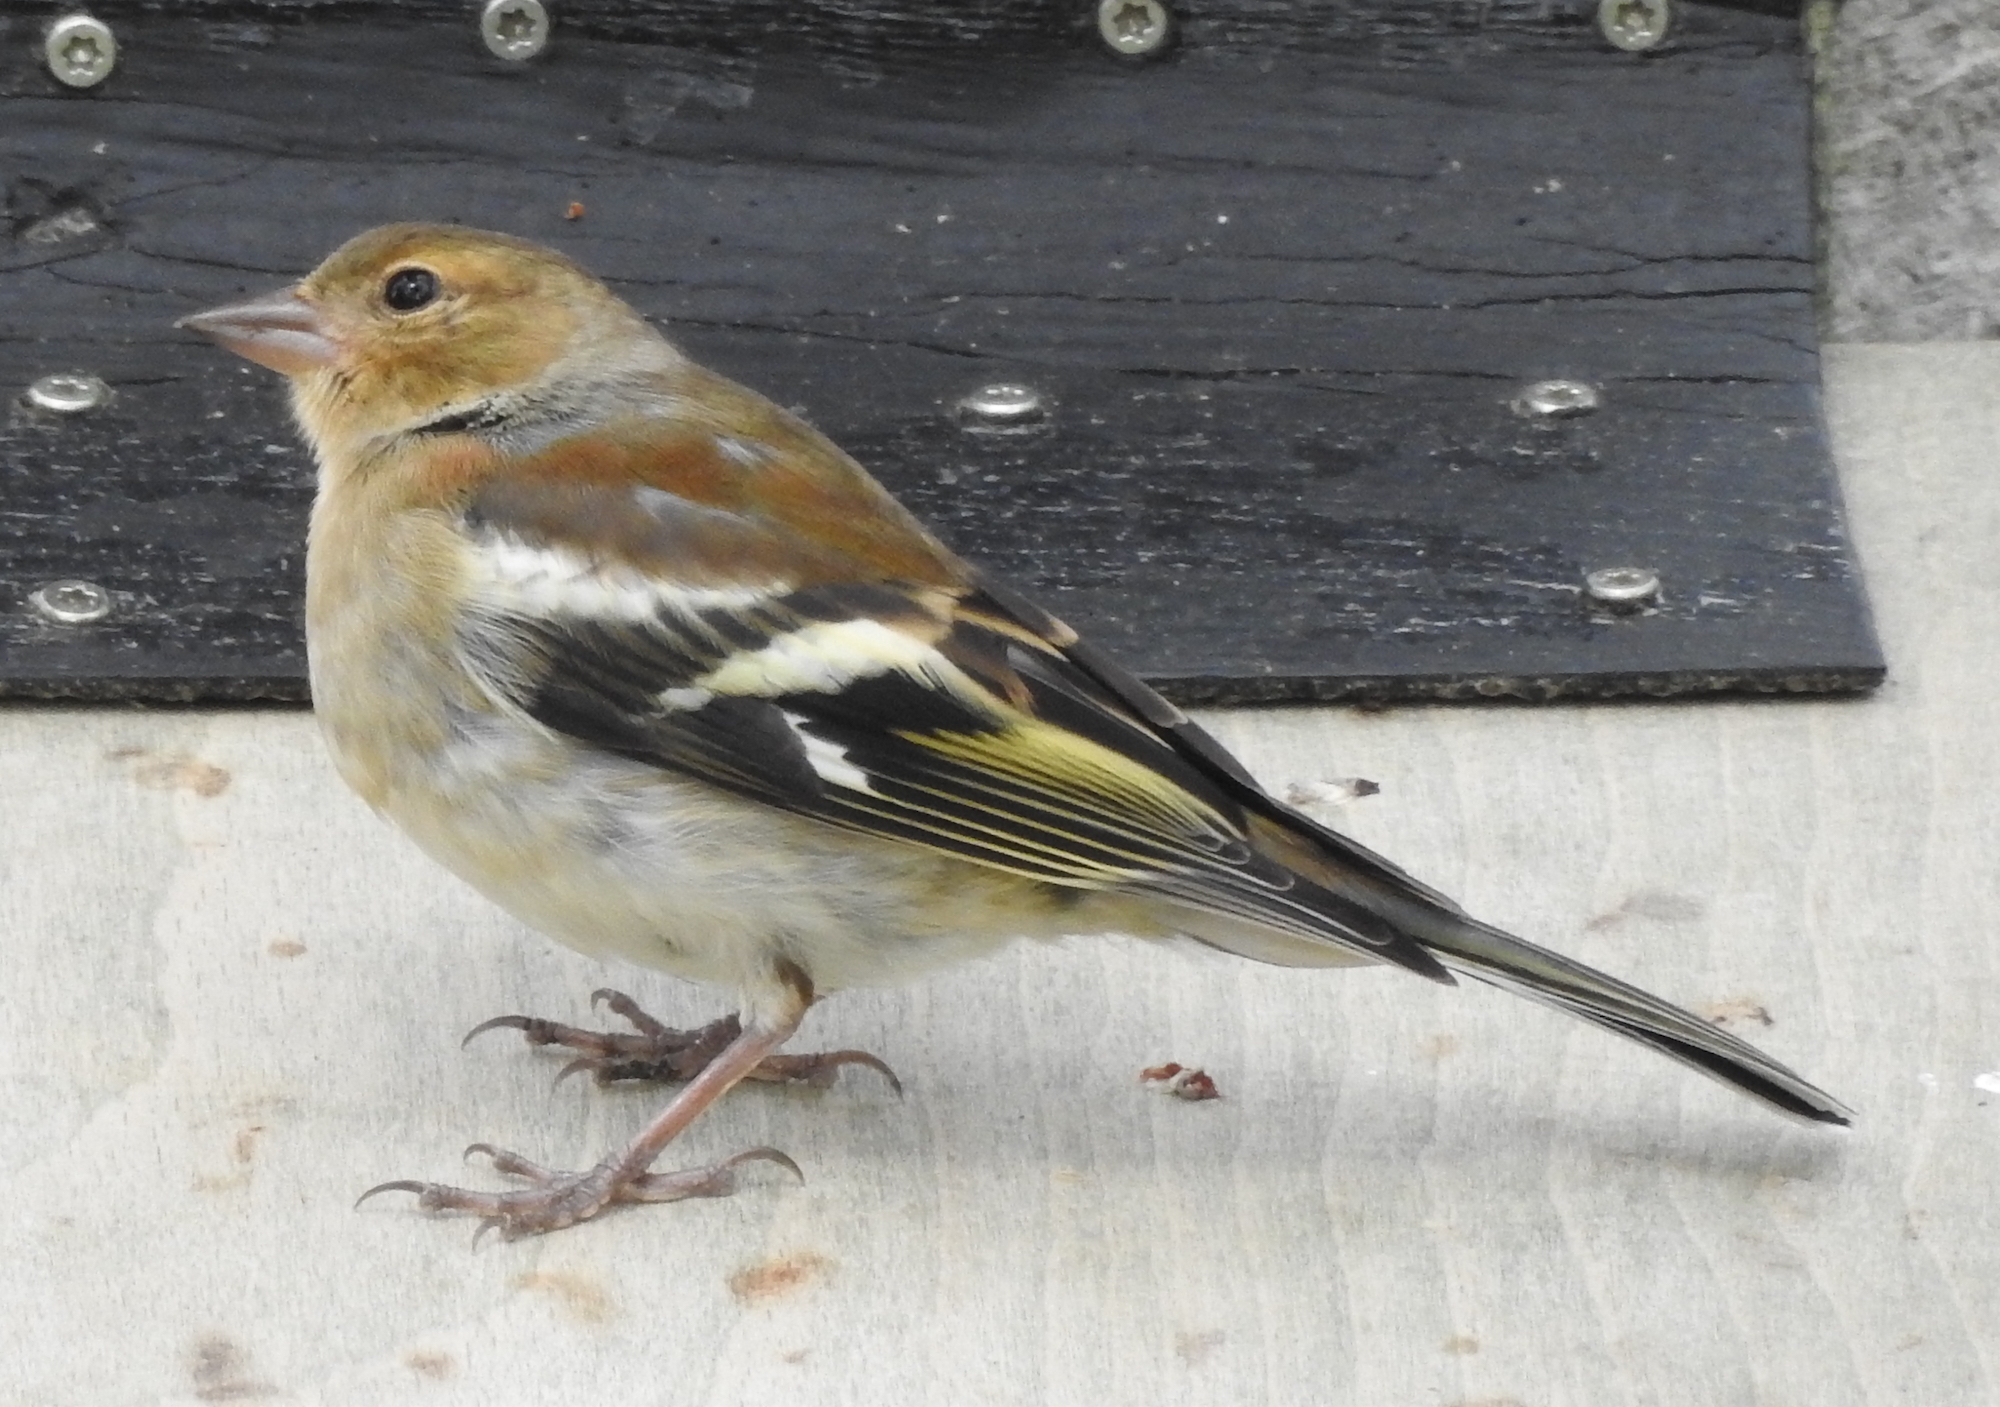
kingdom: Animalia
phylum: Chordata
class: Aves
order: Passeriformes
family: Fringillidae
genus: Fringilla
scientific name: Fringilla coelebs
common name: Common chaffinch
